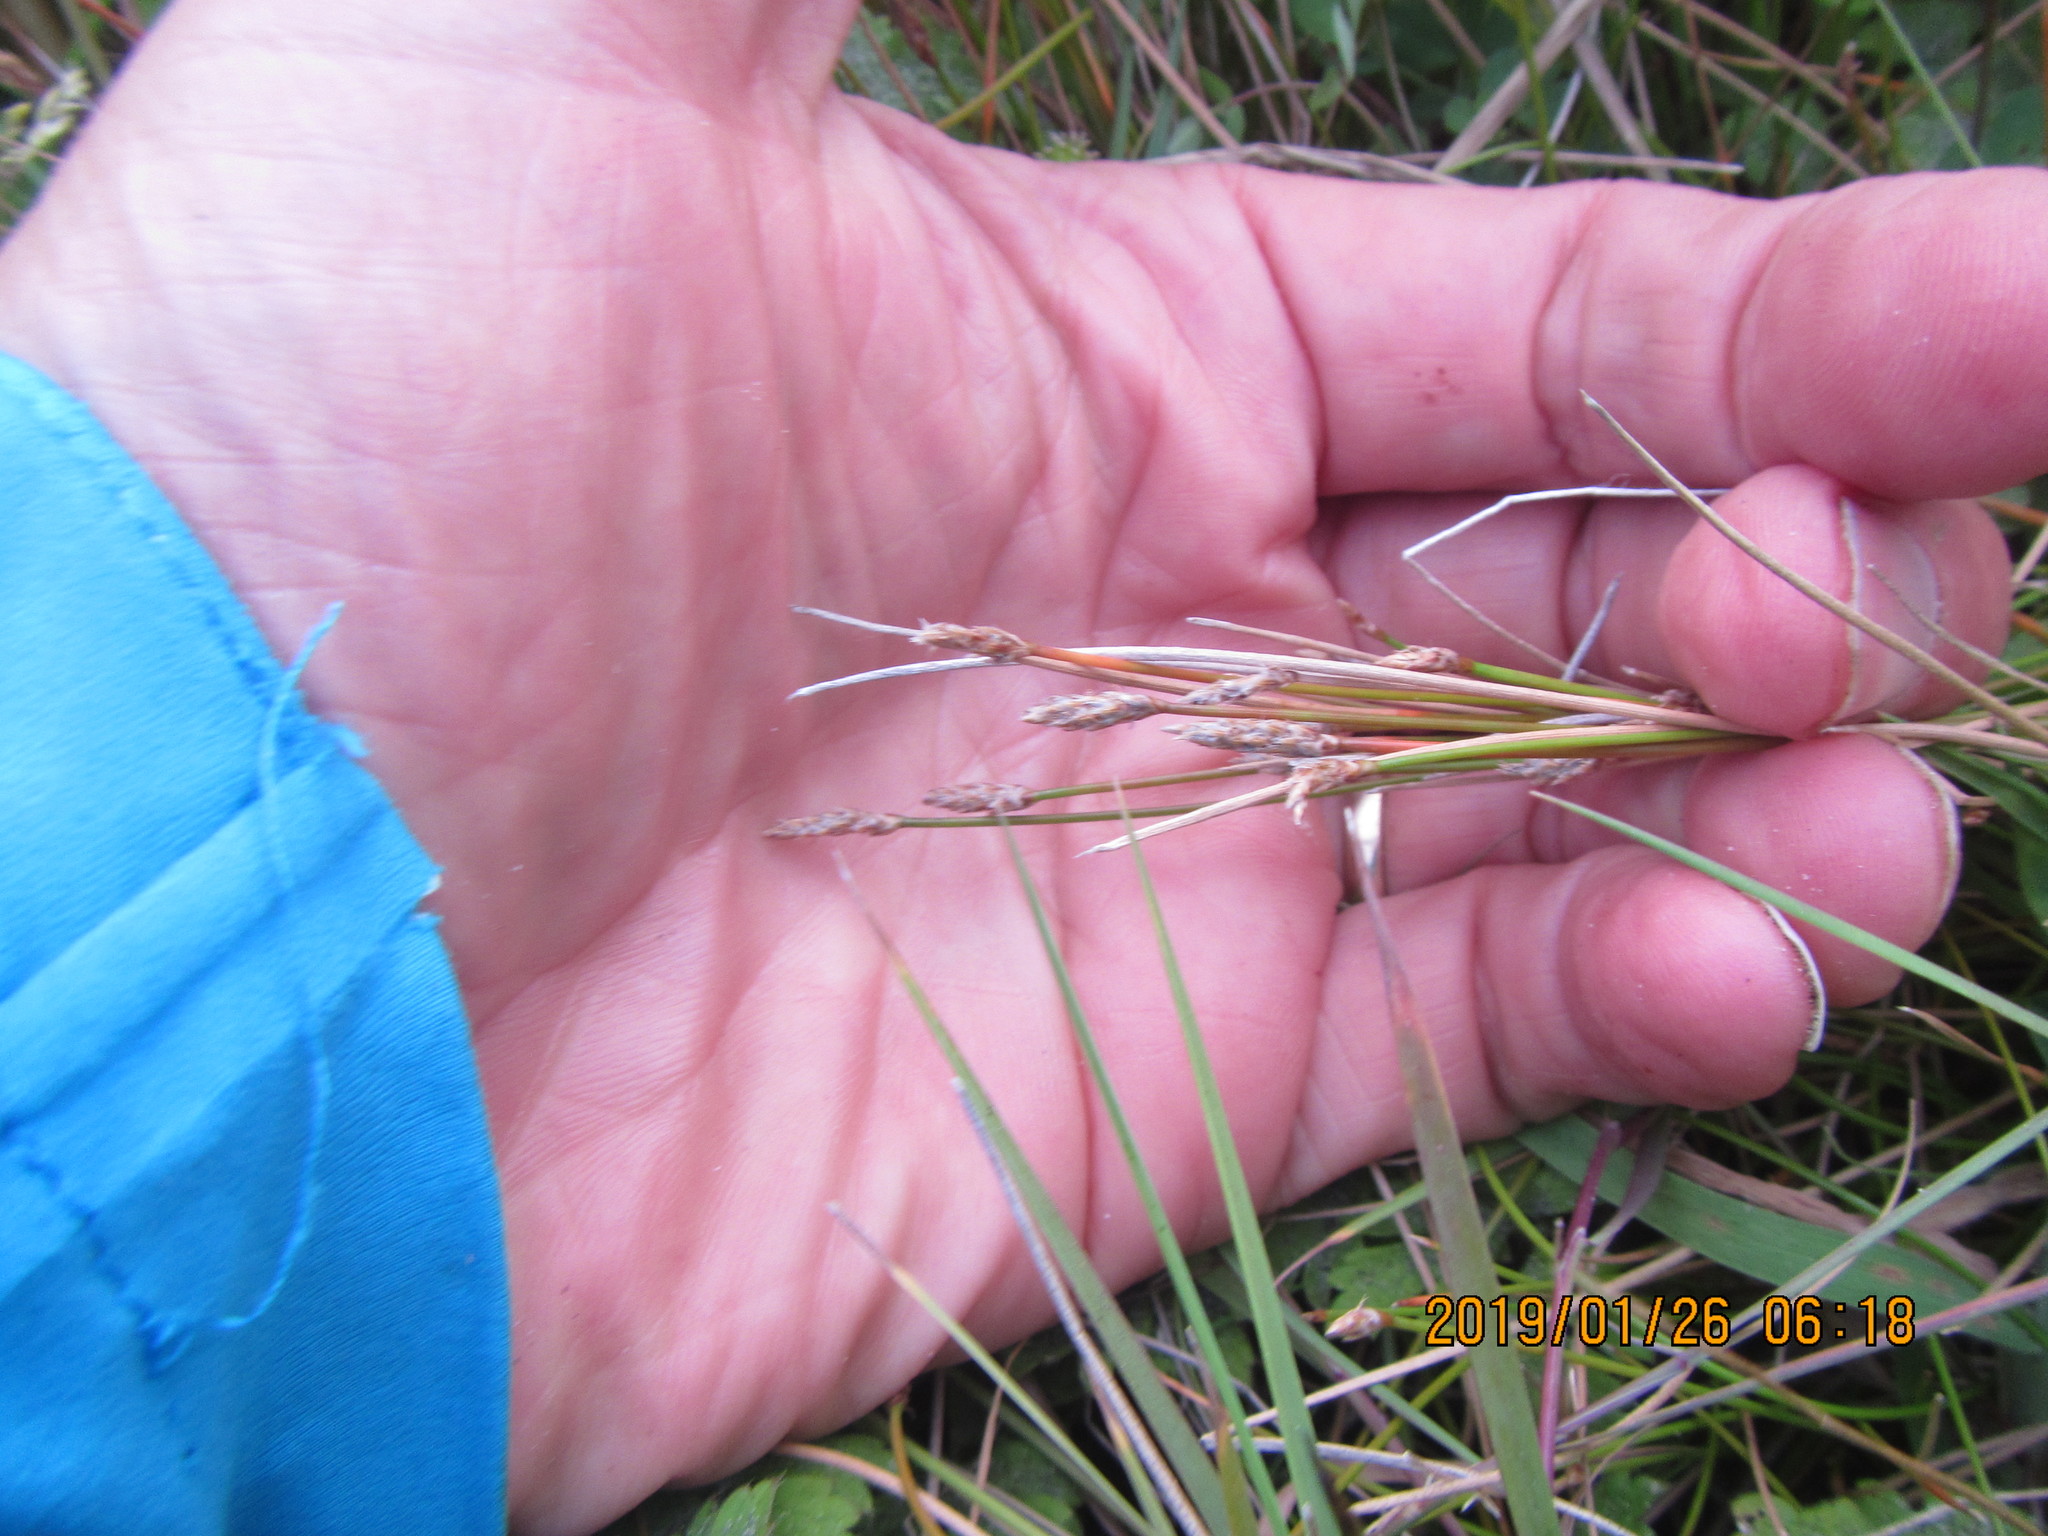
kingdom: Plantae
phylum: Tracheophyta
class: Liliopsida
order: Poales
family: Cyperaceae
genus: Eleocharis
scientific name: Eleocharis acuta
